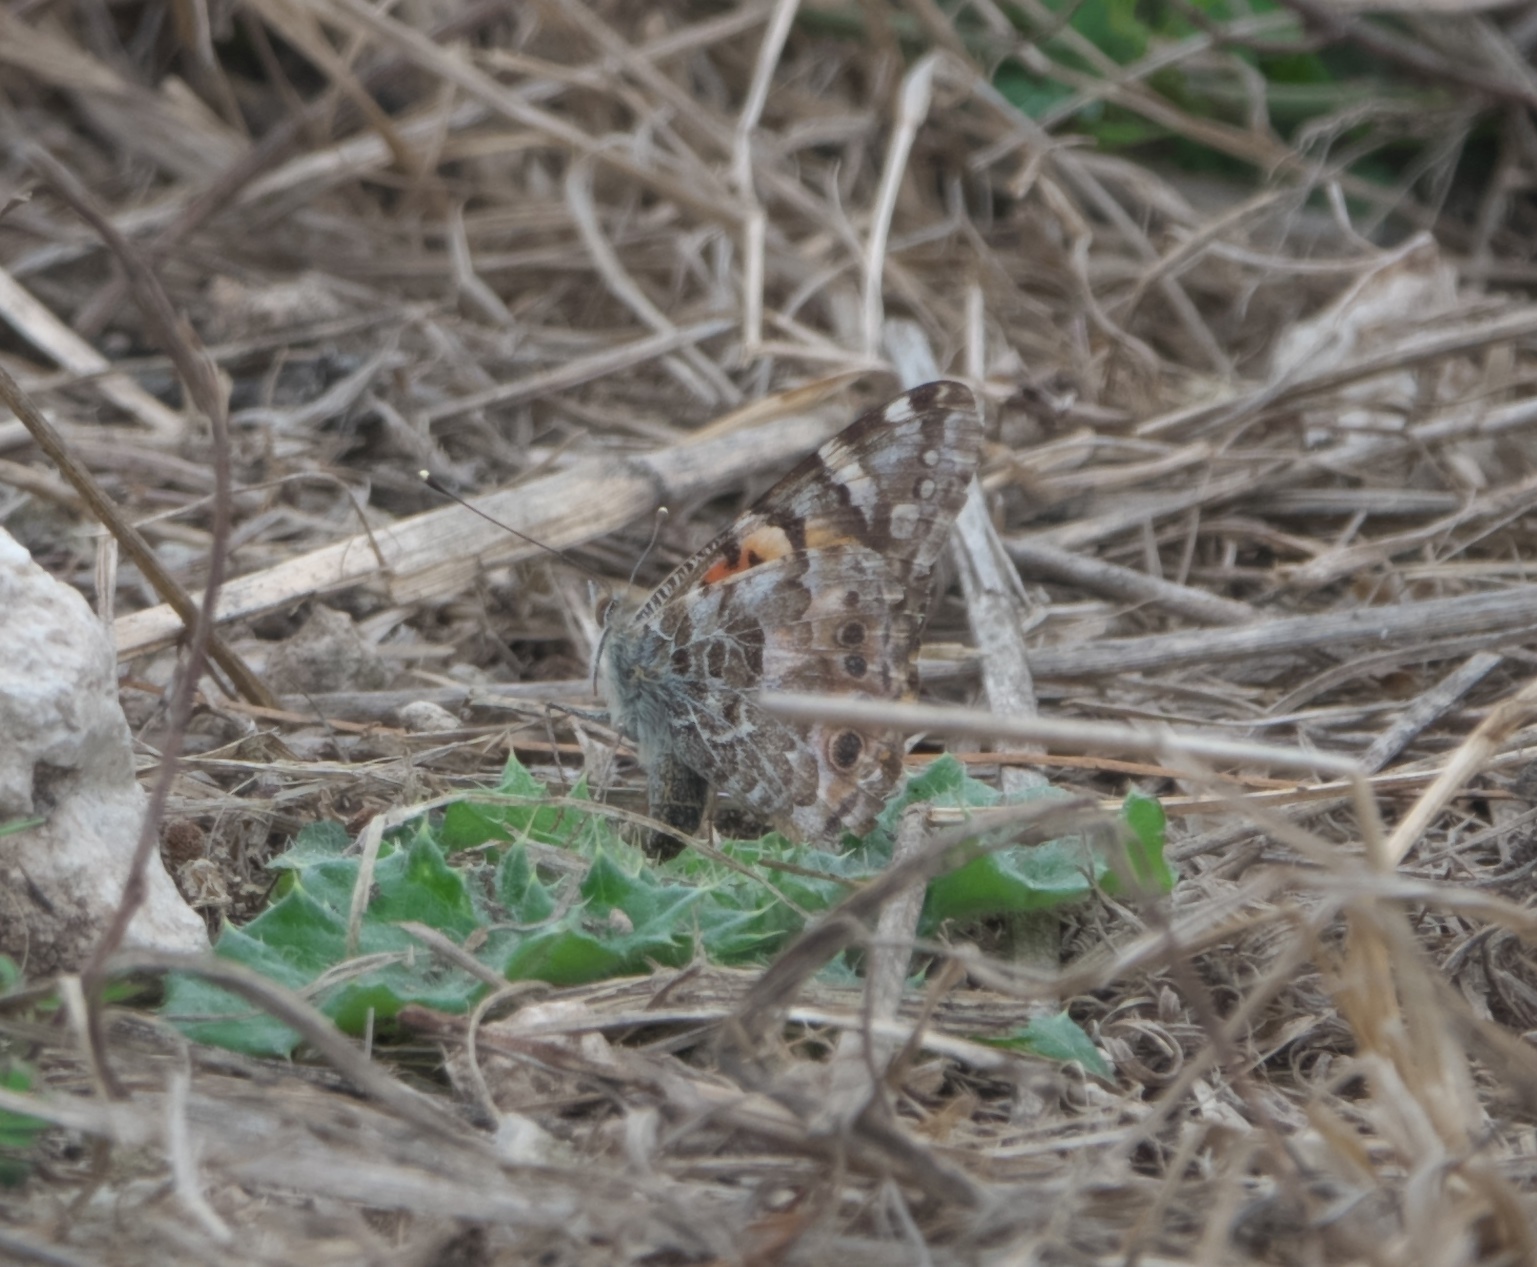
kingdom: Animalia
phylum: Arthropoda
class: Insecta
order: Lepidoptera
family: Nymphalidae
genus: Vanessa
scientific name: Vanessa cardui
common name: Painted lady
